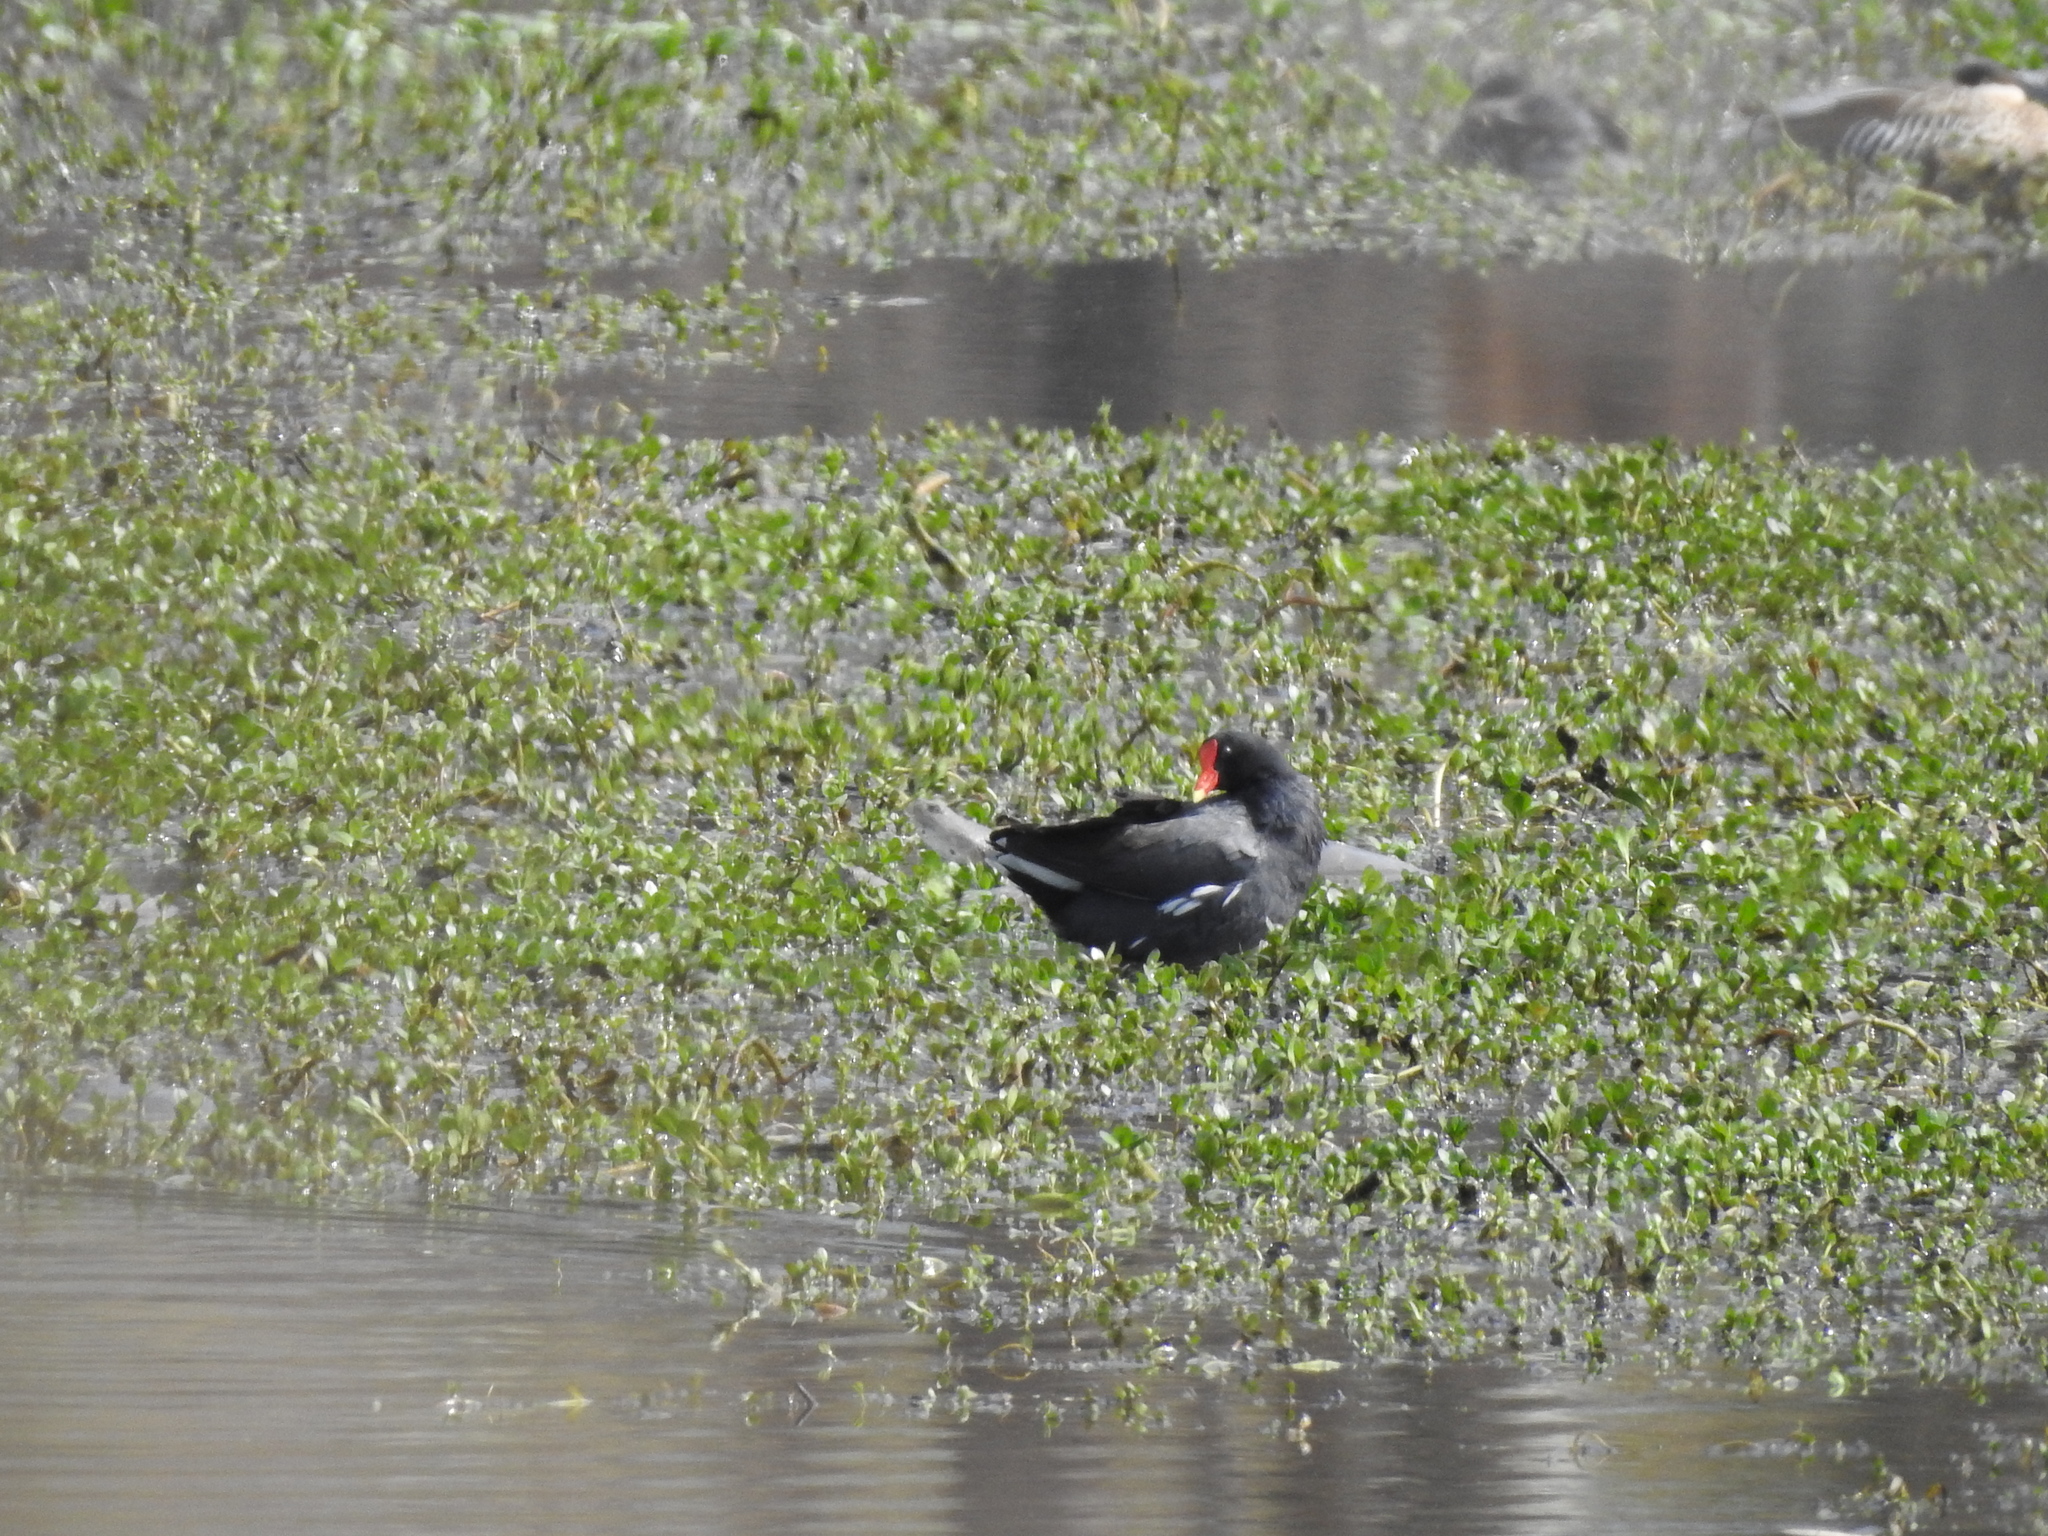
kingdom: Animalia
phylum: Chordata
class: Aves
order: Gruiformes
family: Rallidae
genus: Gallinula
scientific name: Gallinula chloropus
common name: Common moorhen
